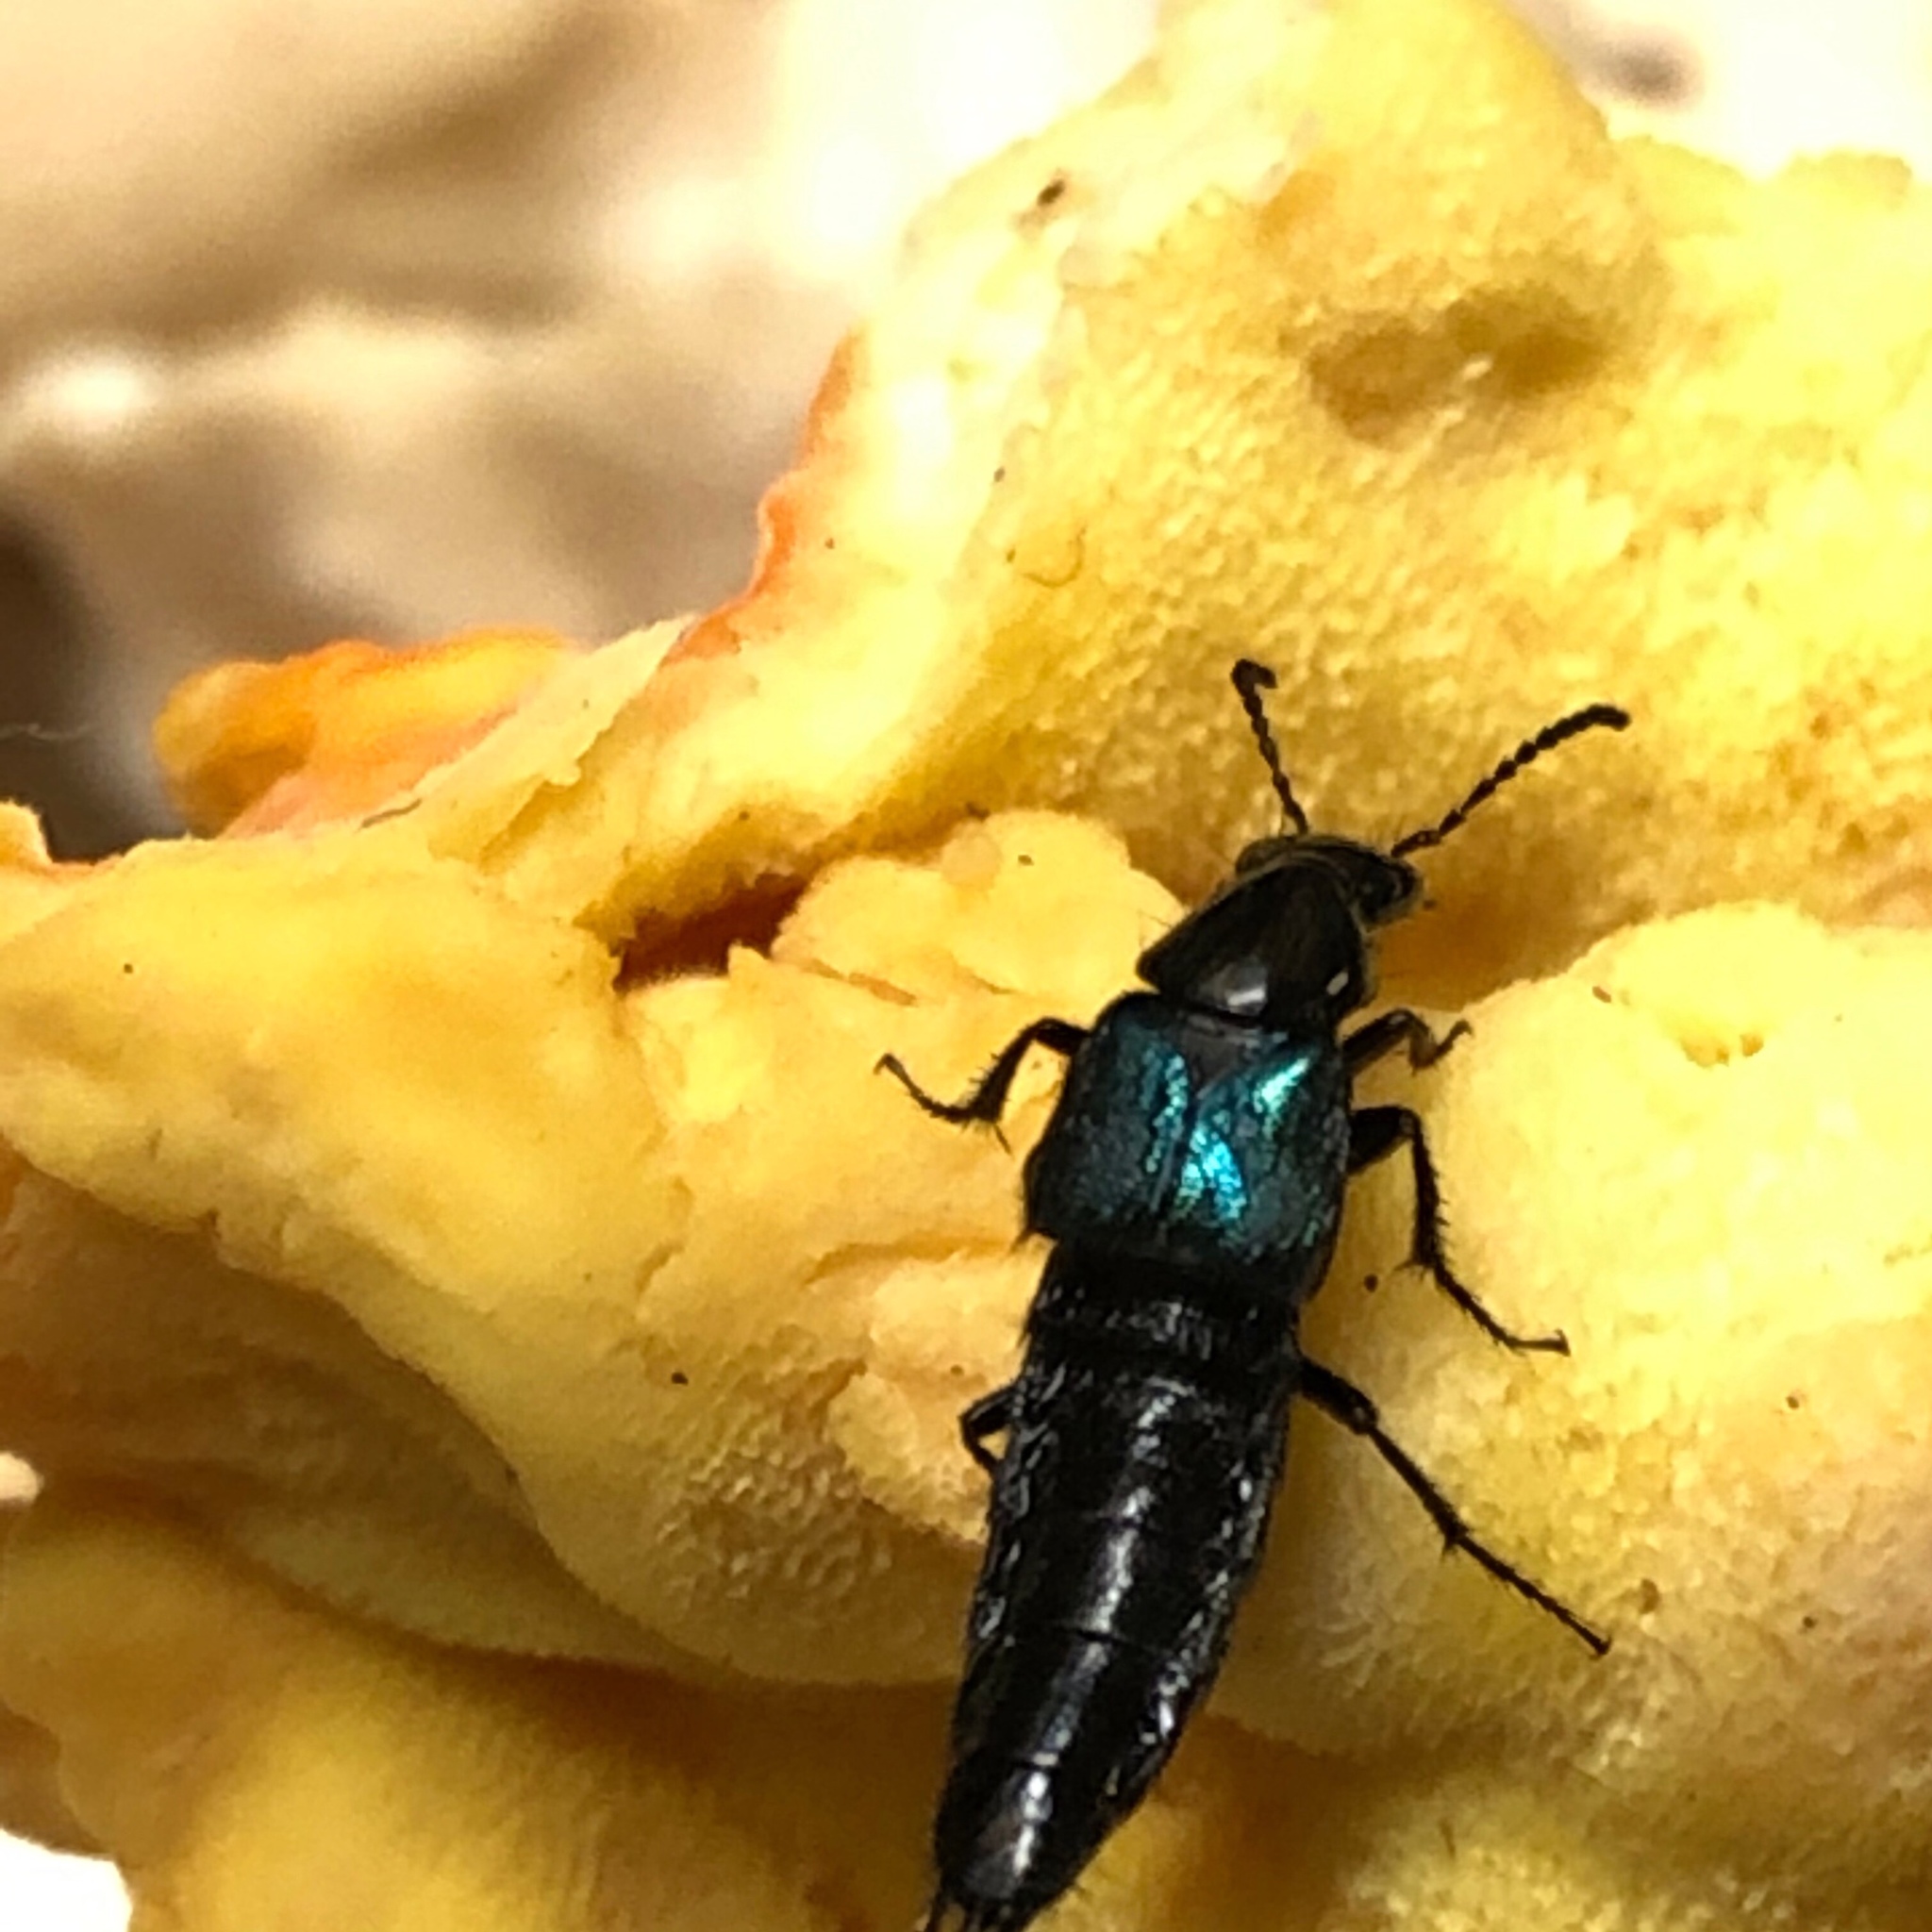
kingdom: Animalia
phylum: Arthropoda
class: Insecta
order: Coleoptera
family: Staphylinidae
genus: Philonthus
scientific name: Philonthus caeruleipennis
